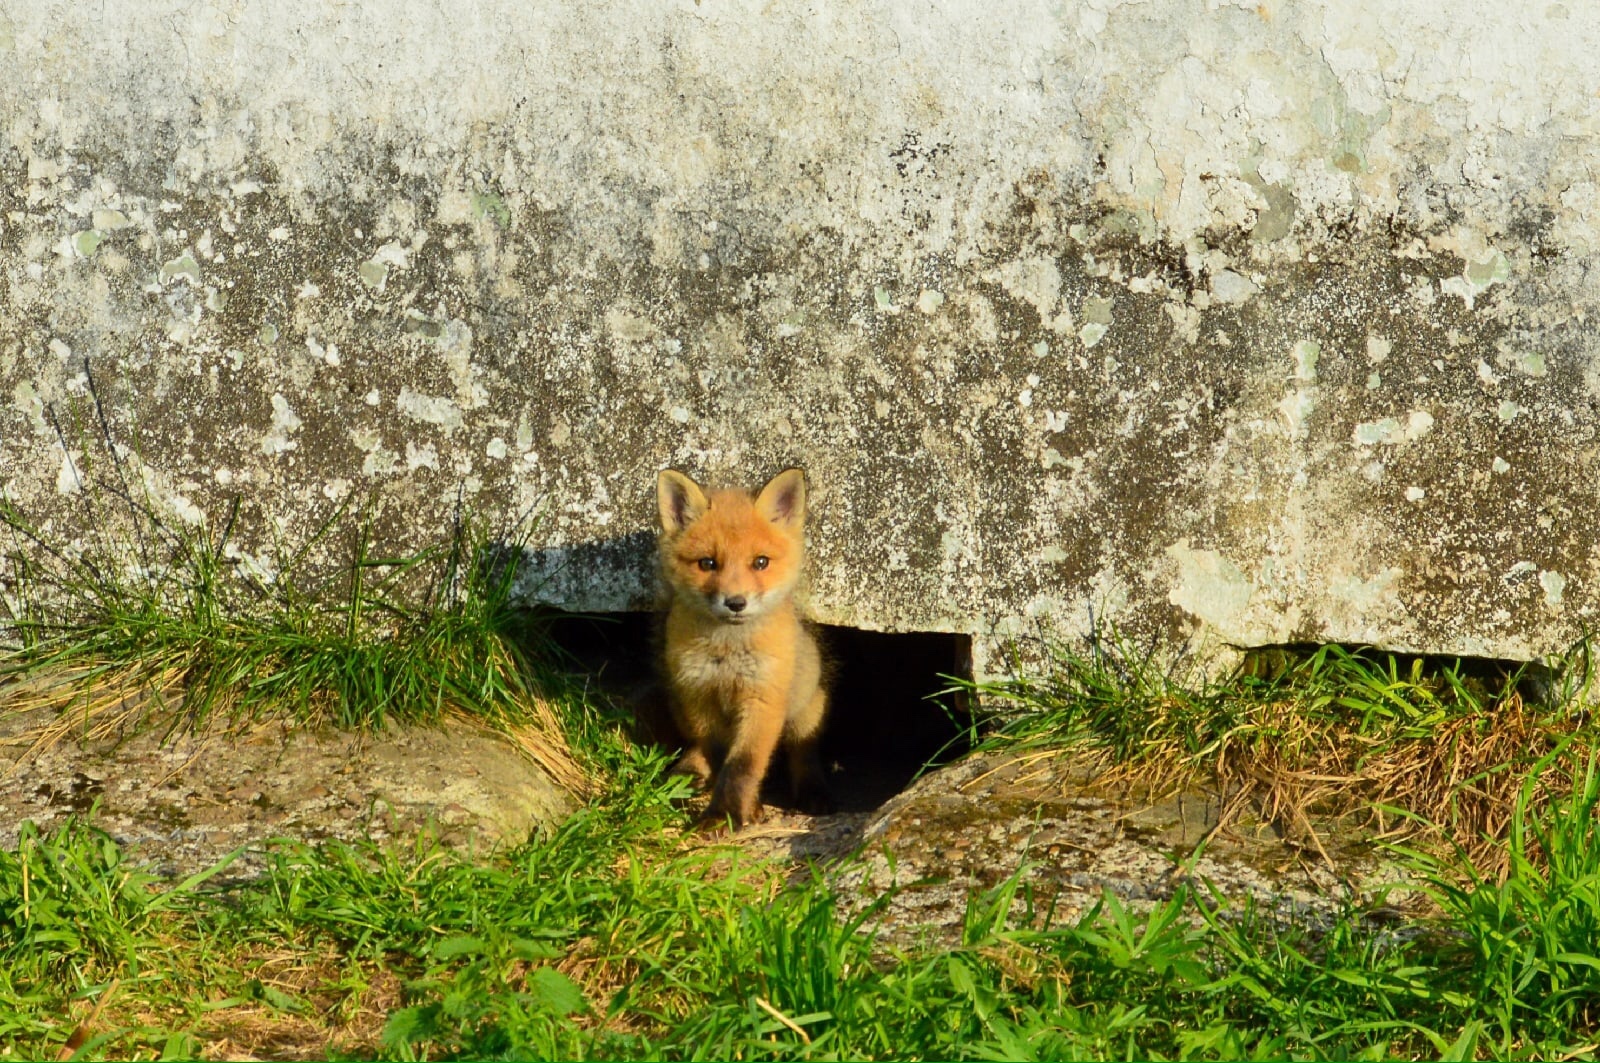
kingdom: Animalia
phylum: Chordata
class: Mammalia
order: Carnivora
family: Canidae
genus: Vulpes
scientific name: Vulpes vulpes
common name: Red fox
